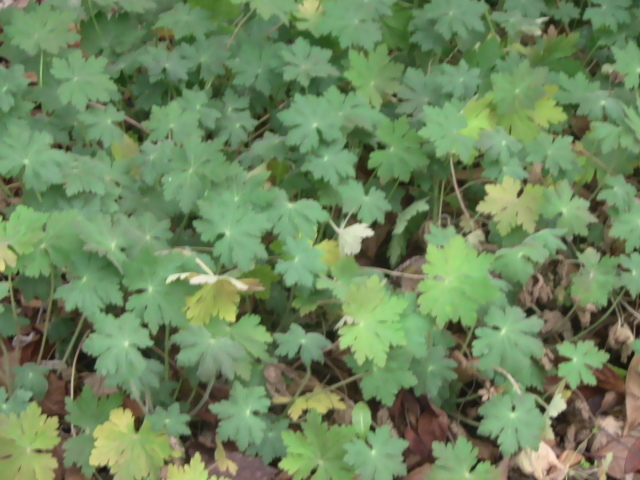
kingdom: Plantae
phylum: Tracheophyta
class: Magnoliopsida
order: Geraniales
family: Geraniaceae
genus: Geranium
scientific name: Geranium macrorrhizum
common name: Rock crane's-bill
